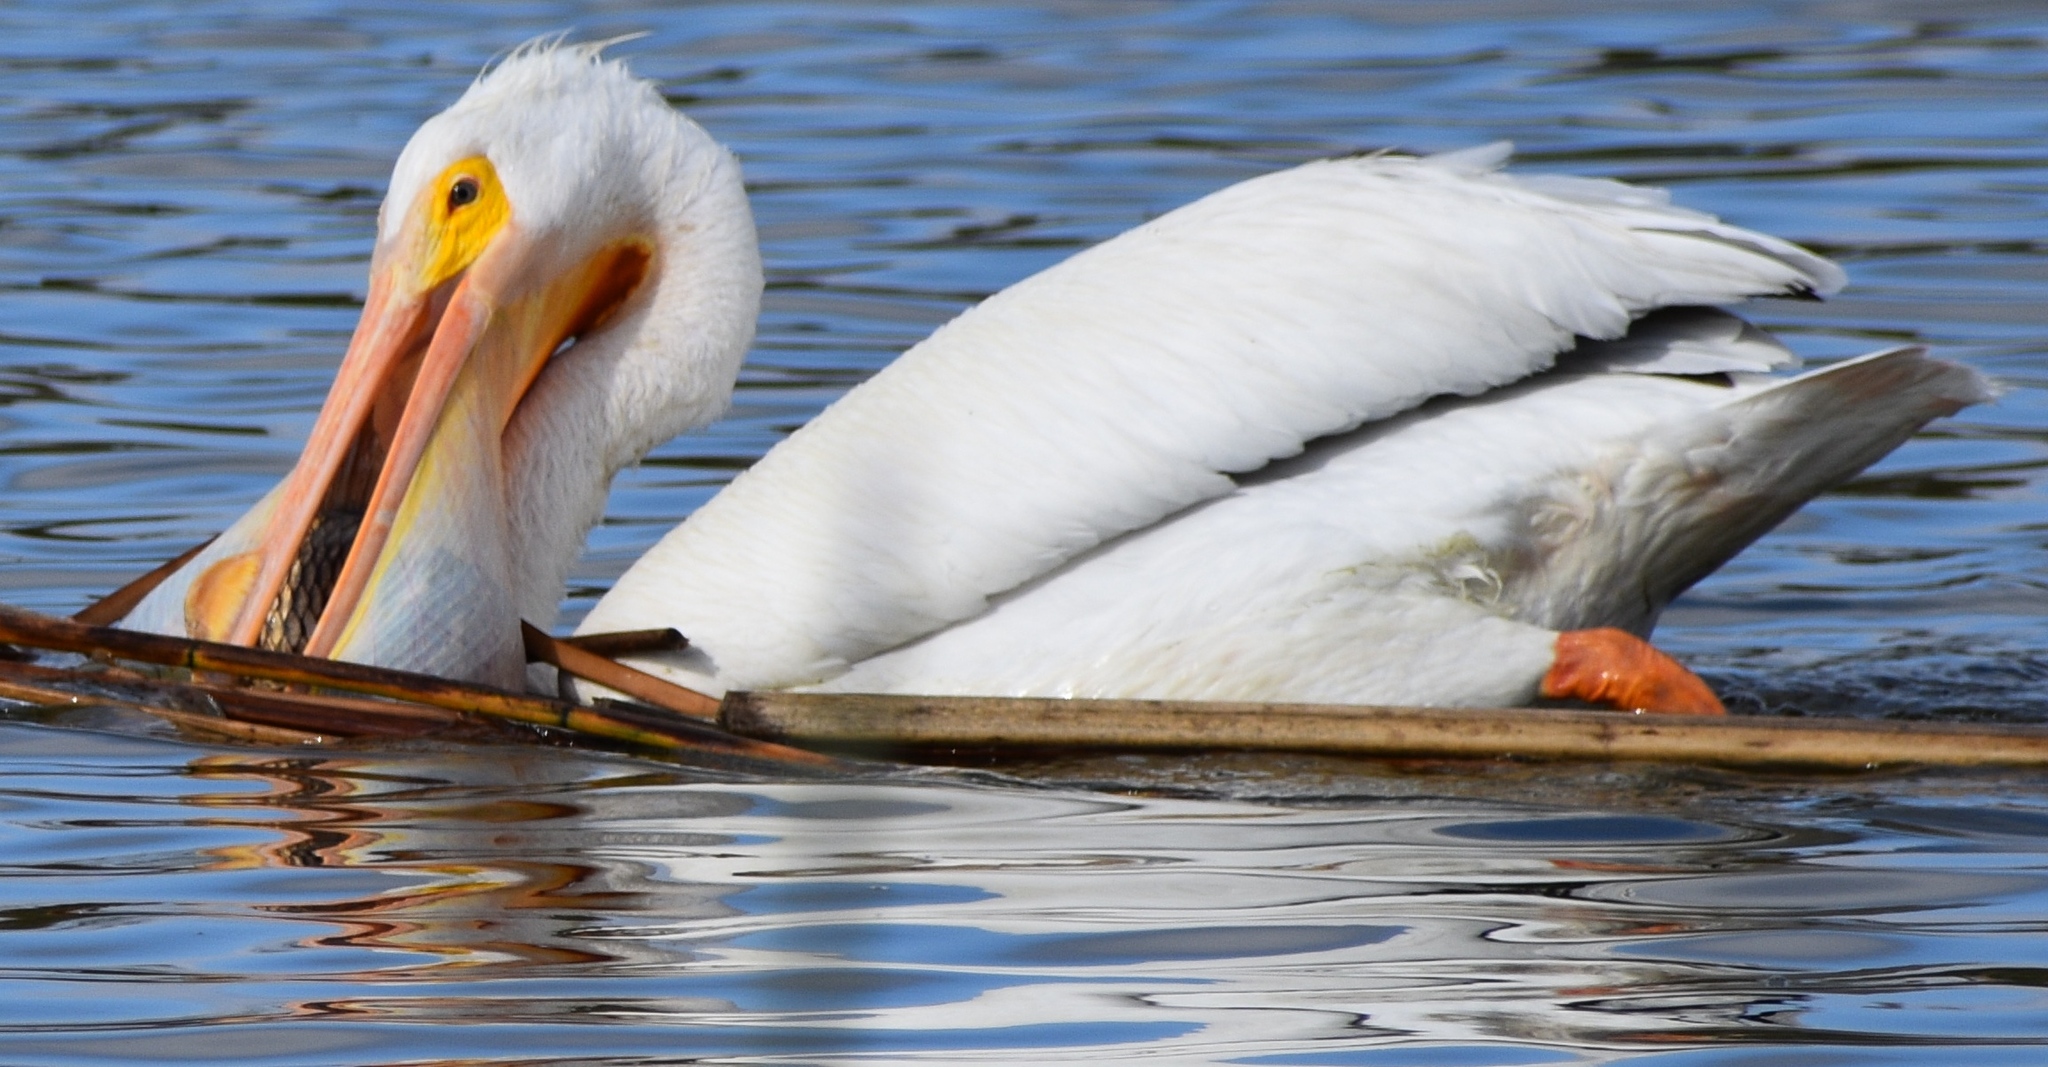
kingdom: Animalia
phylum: Chordata
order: Cypriniformes
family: Cyprinidae
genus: Cyprinus
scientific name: Cyprinus carpio
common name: Common carp
